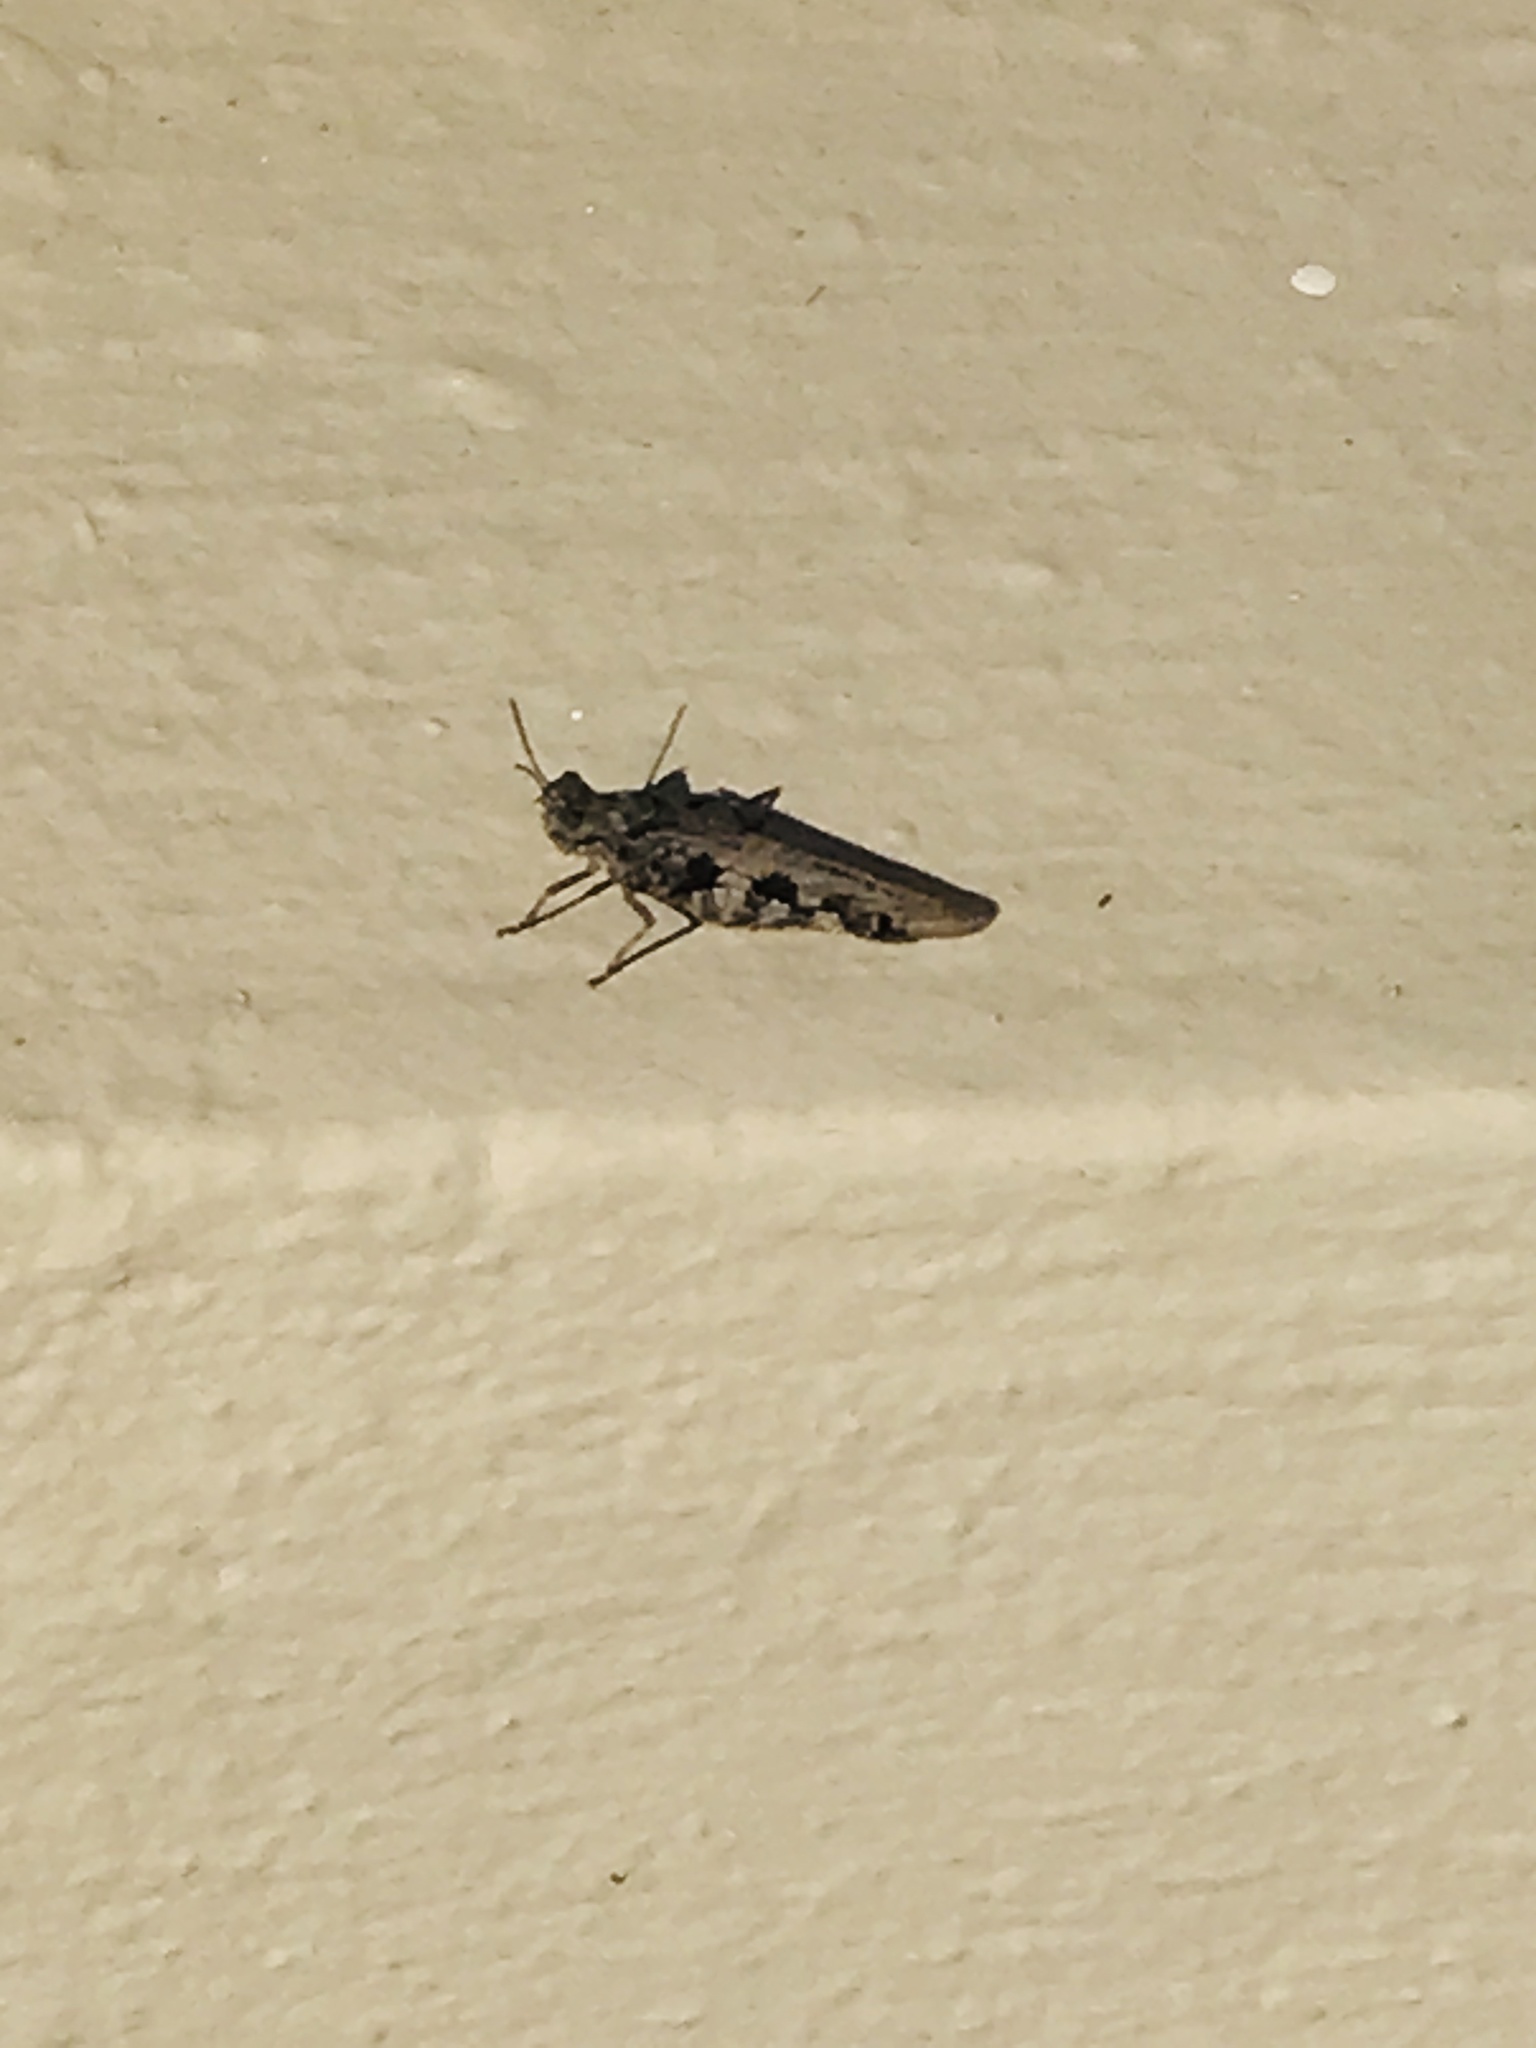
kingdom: Animalia
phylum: Arthropoda
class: Insecta
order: Orthoptera
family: Acrididae
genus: Conozoa
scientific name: Conozoa sulcifrons
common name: Groove-headed grasshopper
